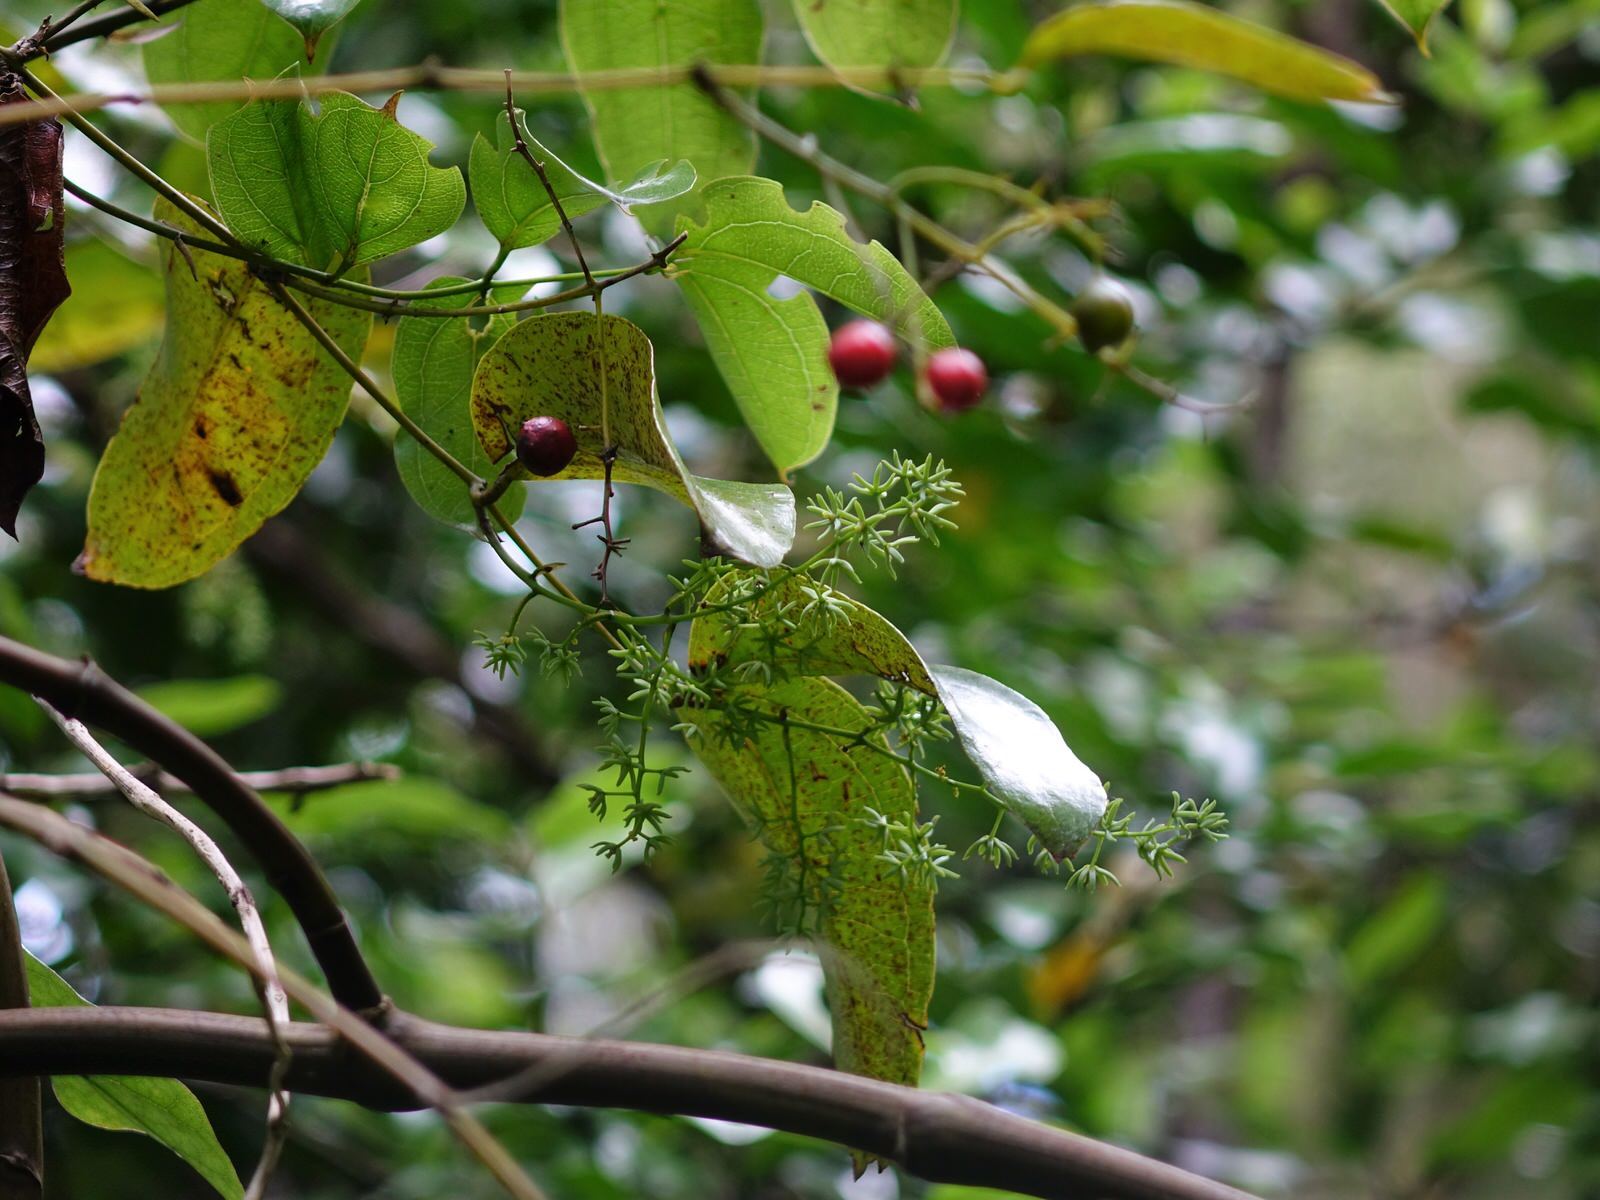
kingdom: Plantae
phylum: Tracheophyta
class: Liliopsida
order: Liliales
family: Ripogonaceae
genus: Ripogonum
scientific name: Ripogonum scandens
